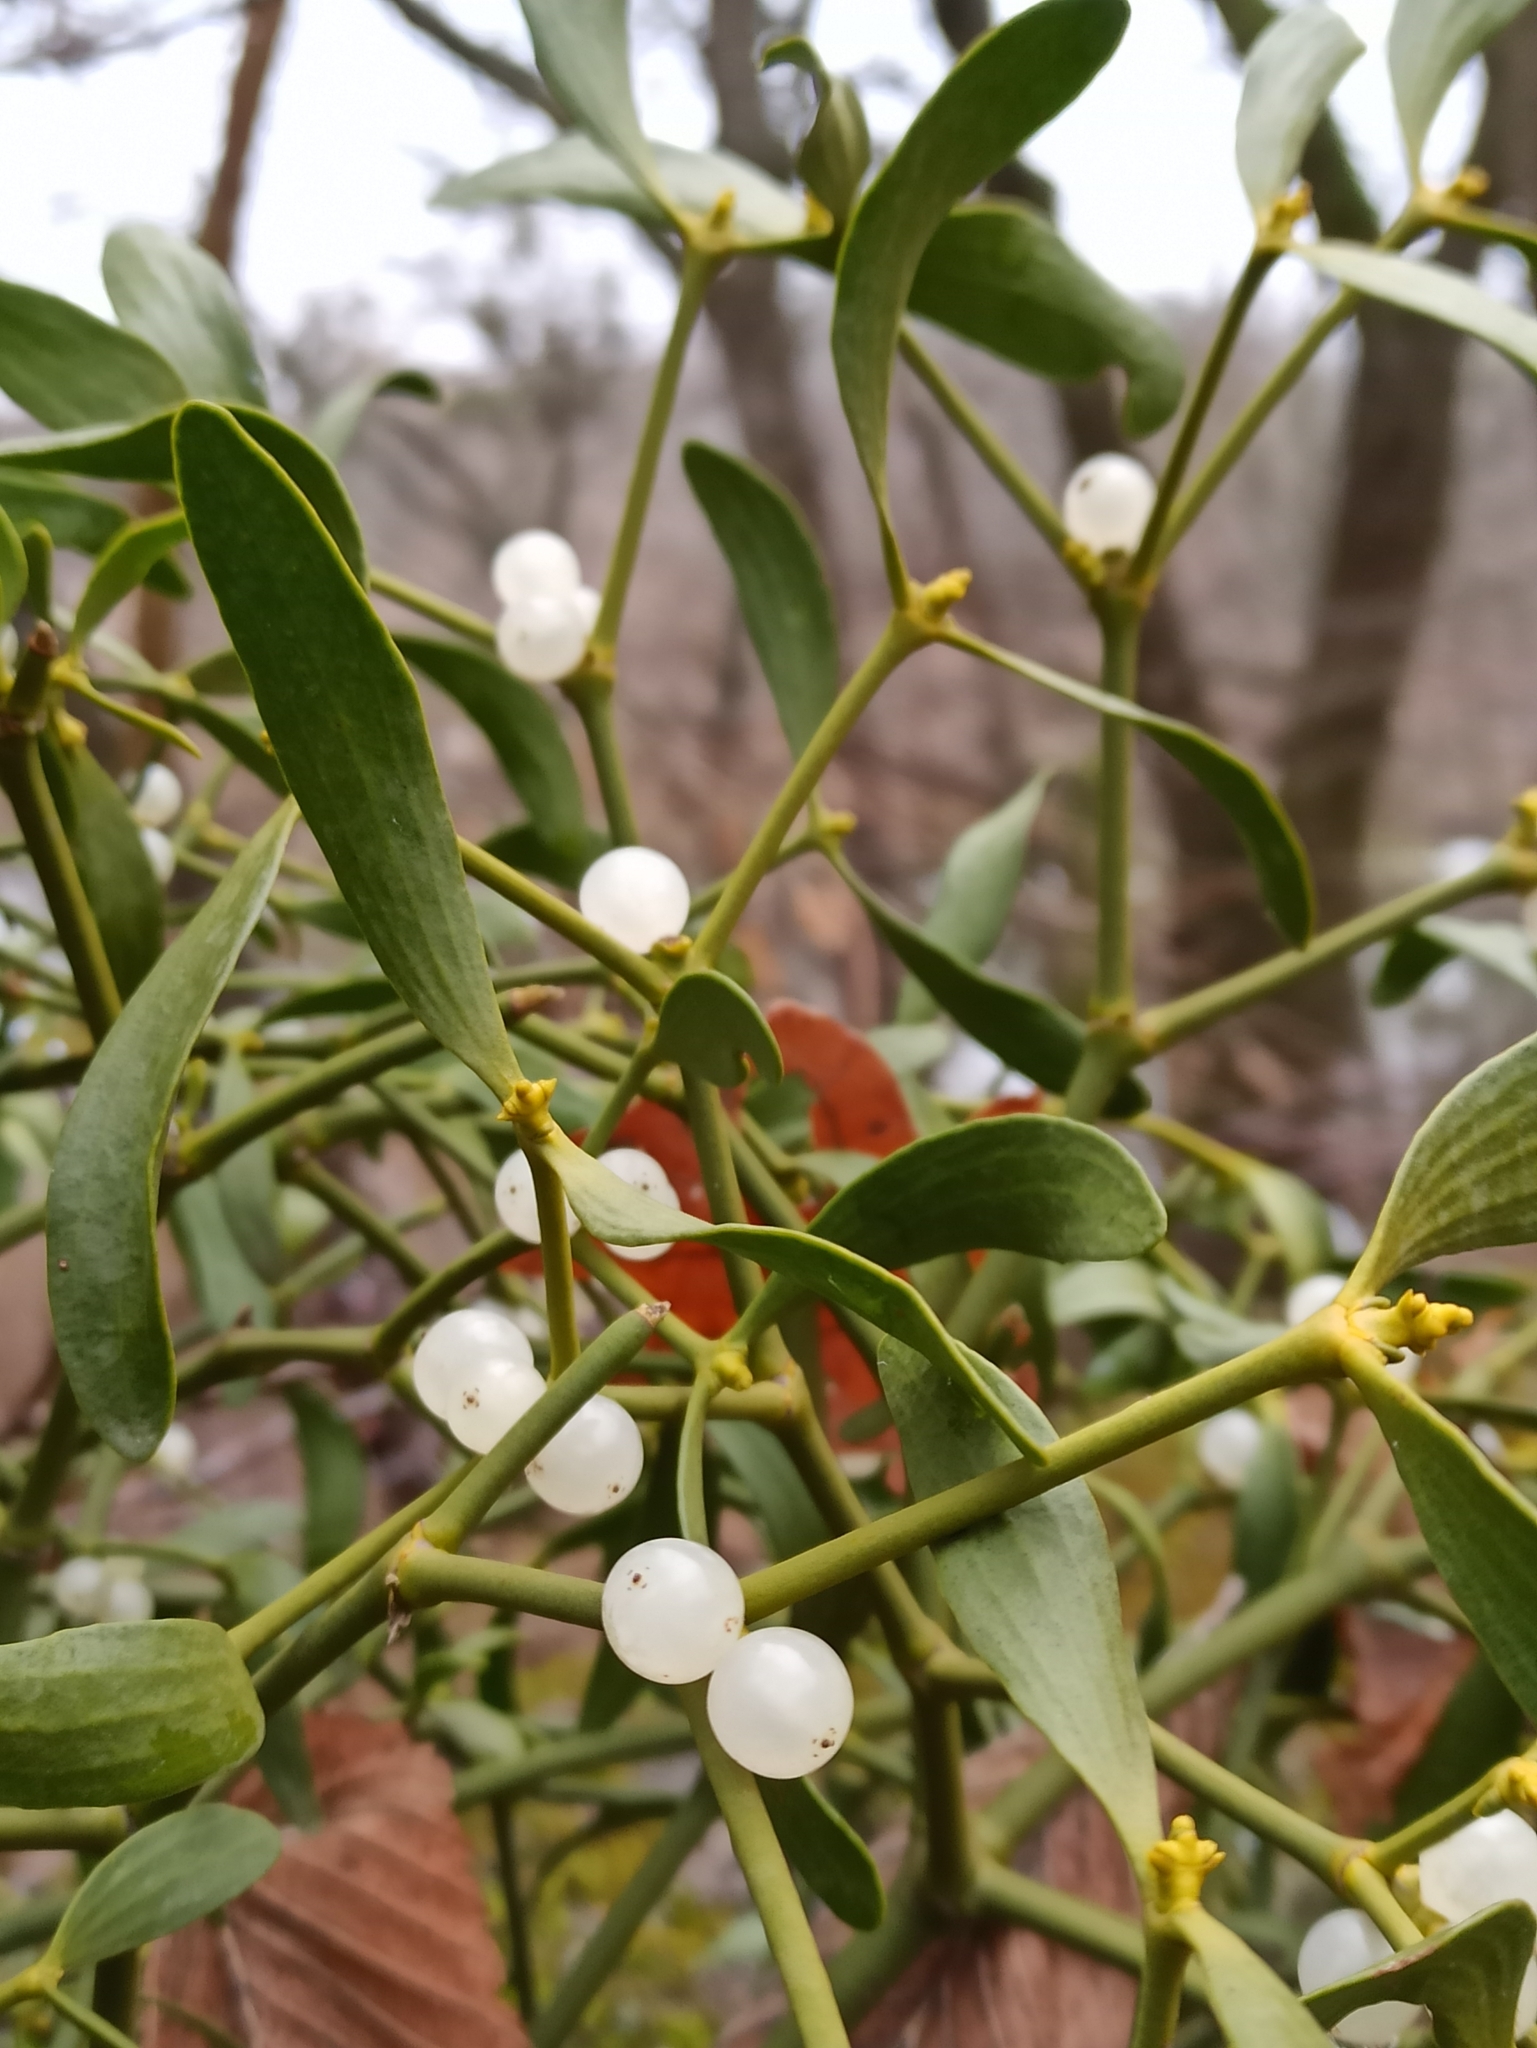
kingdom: Plantae
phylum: Tracheophyta
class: Magnoliopsida
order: Santalales
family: Viscaceae
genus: Viscum
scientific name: Viscum album
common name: Mistletoe
